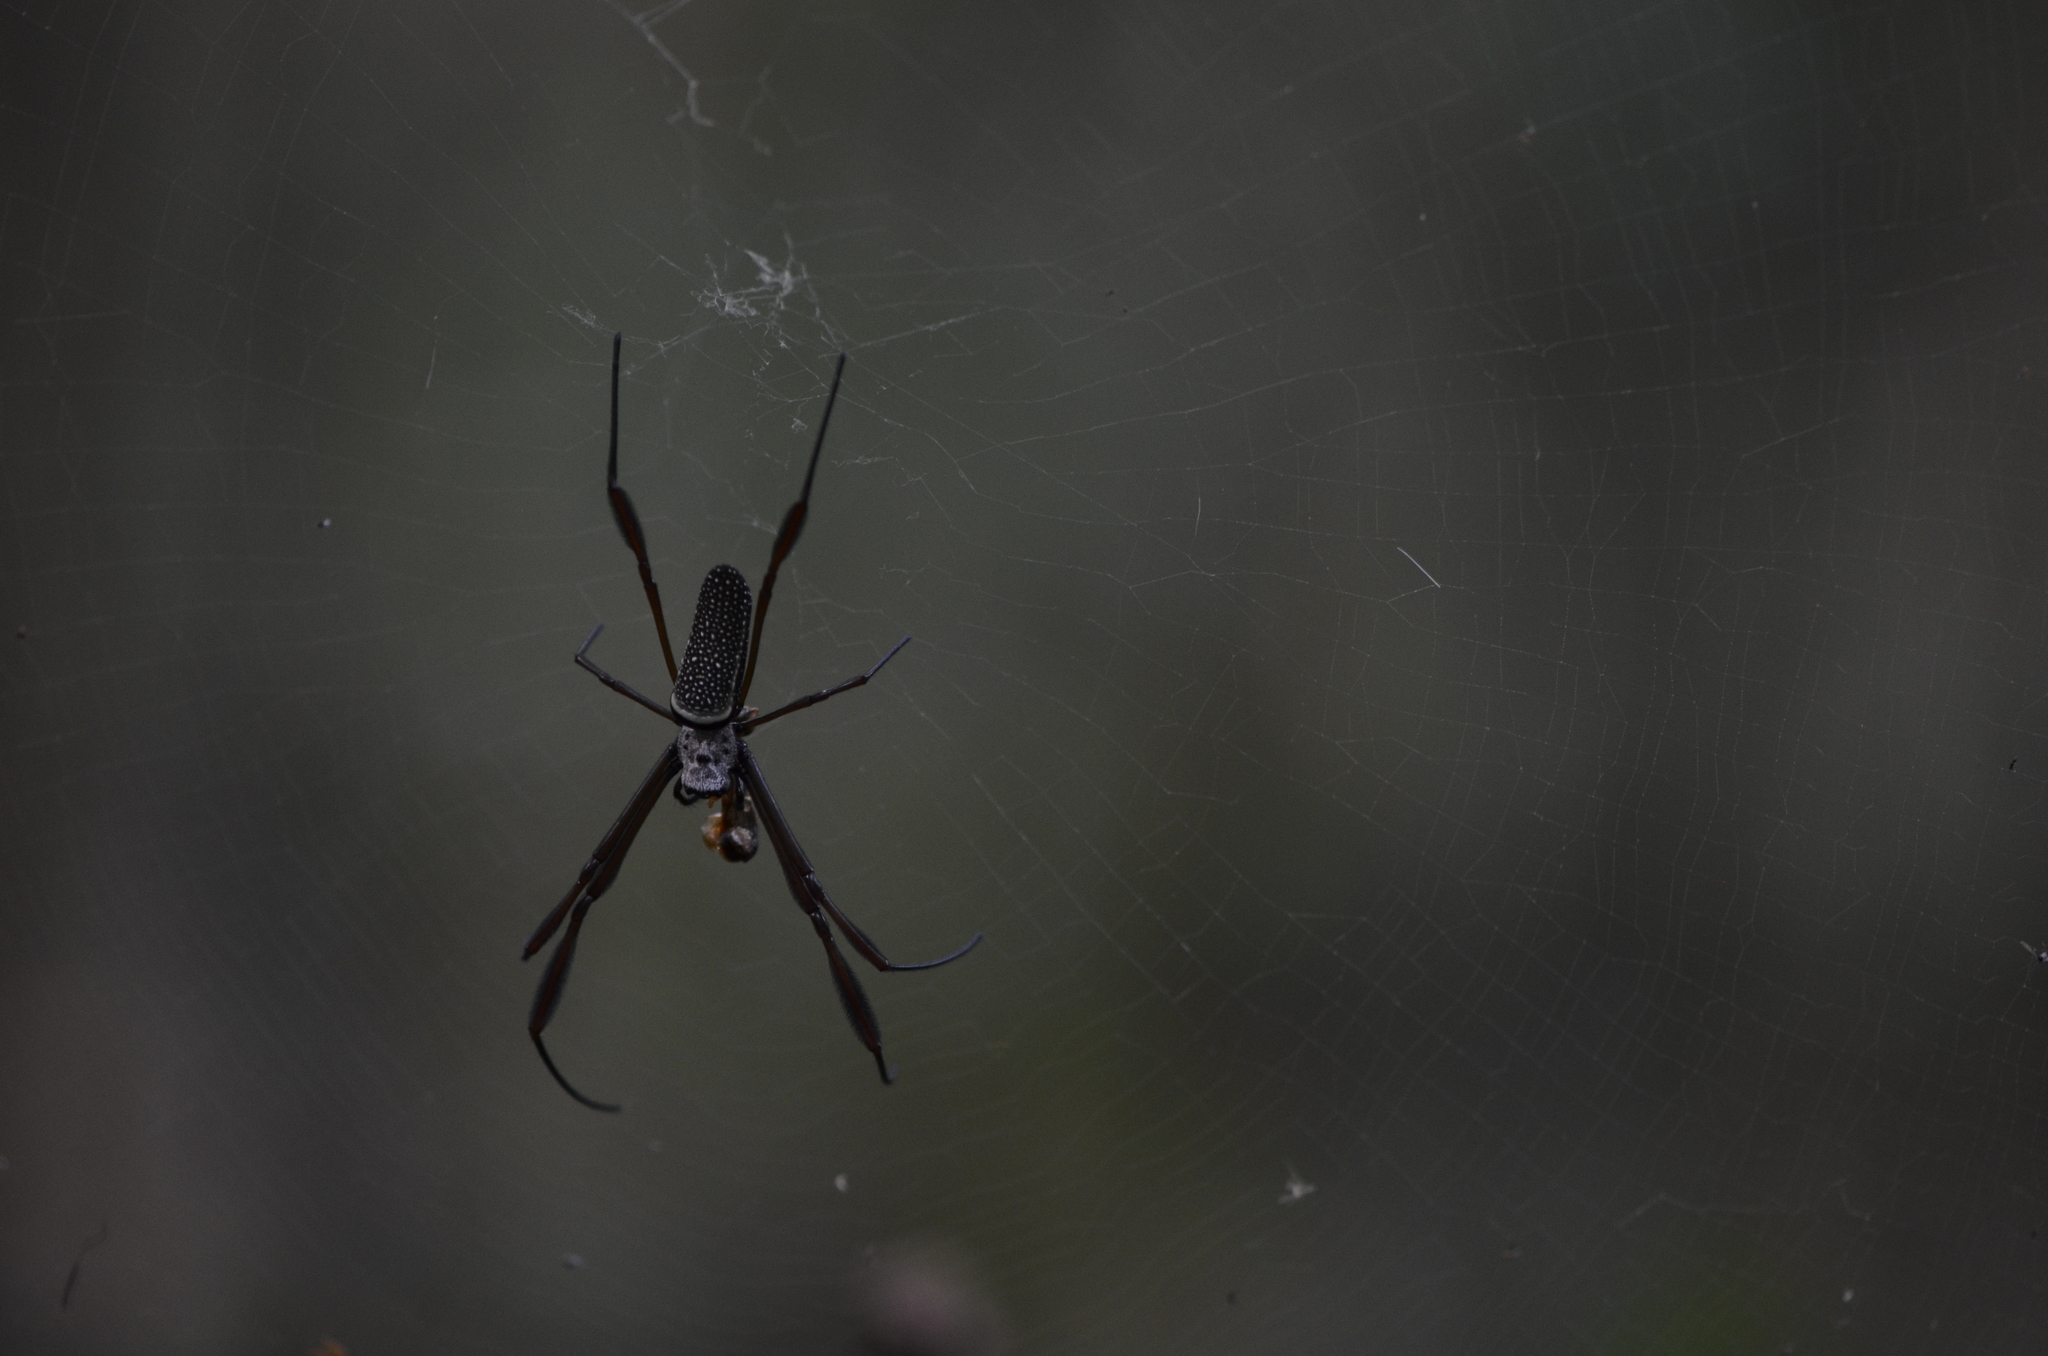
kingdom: Animalia
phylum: Arthropoda
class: Arachnida
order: Araneae
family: Araneidae
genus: Trichonephila
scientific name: Trichonephila clavipes
